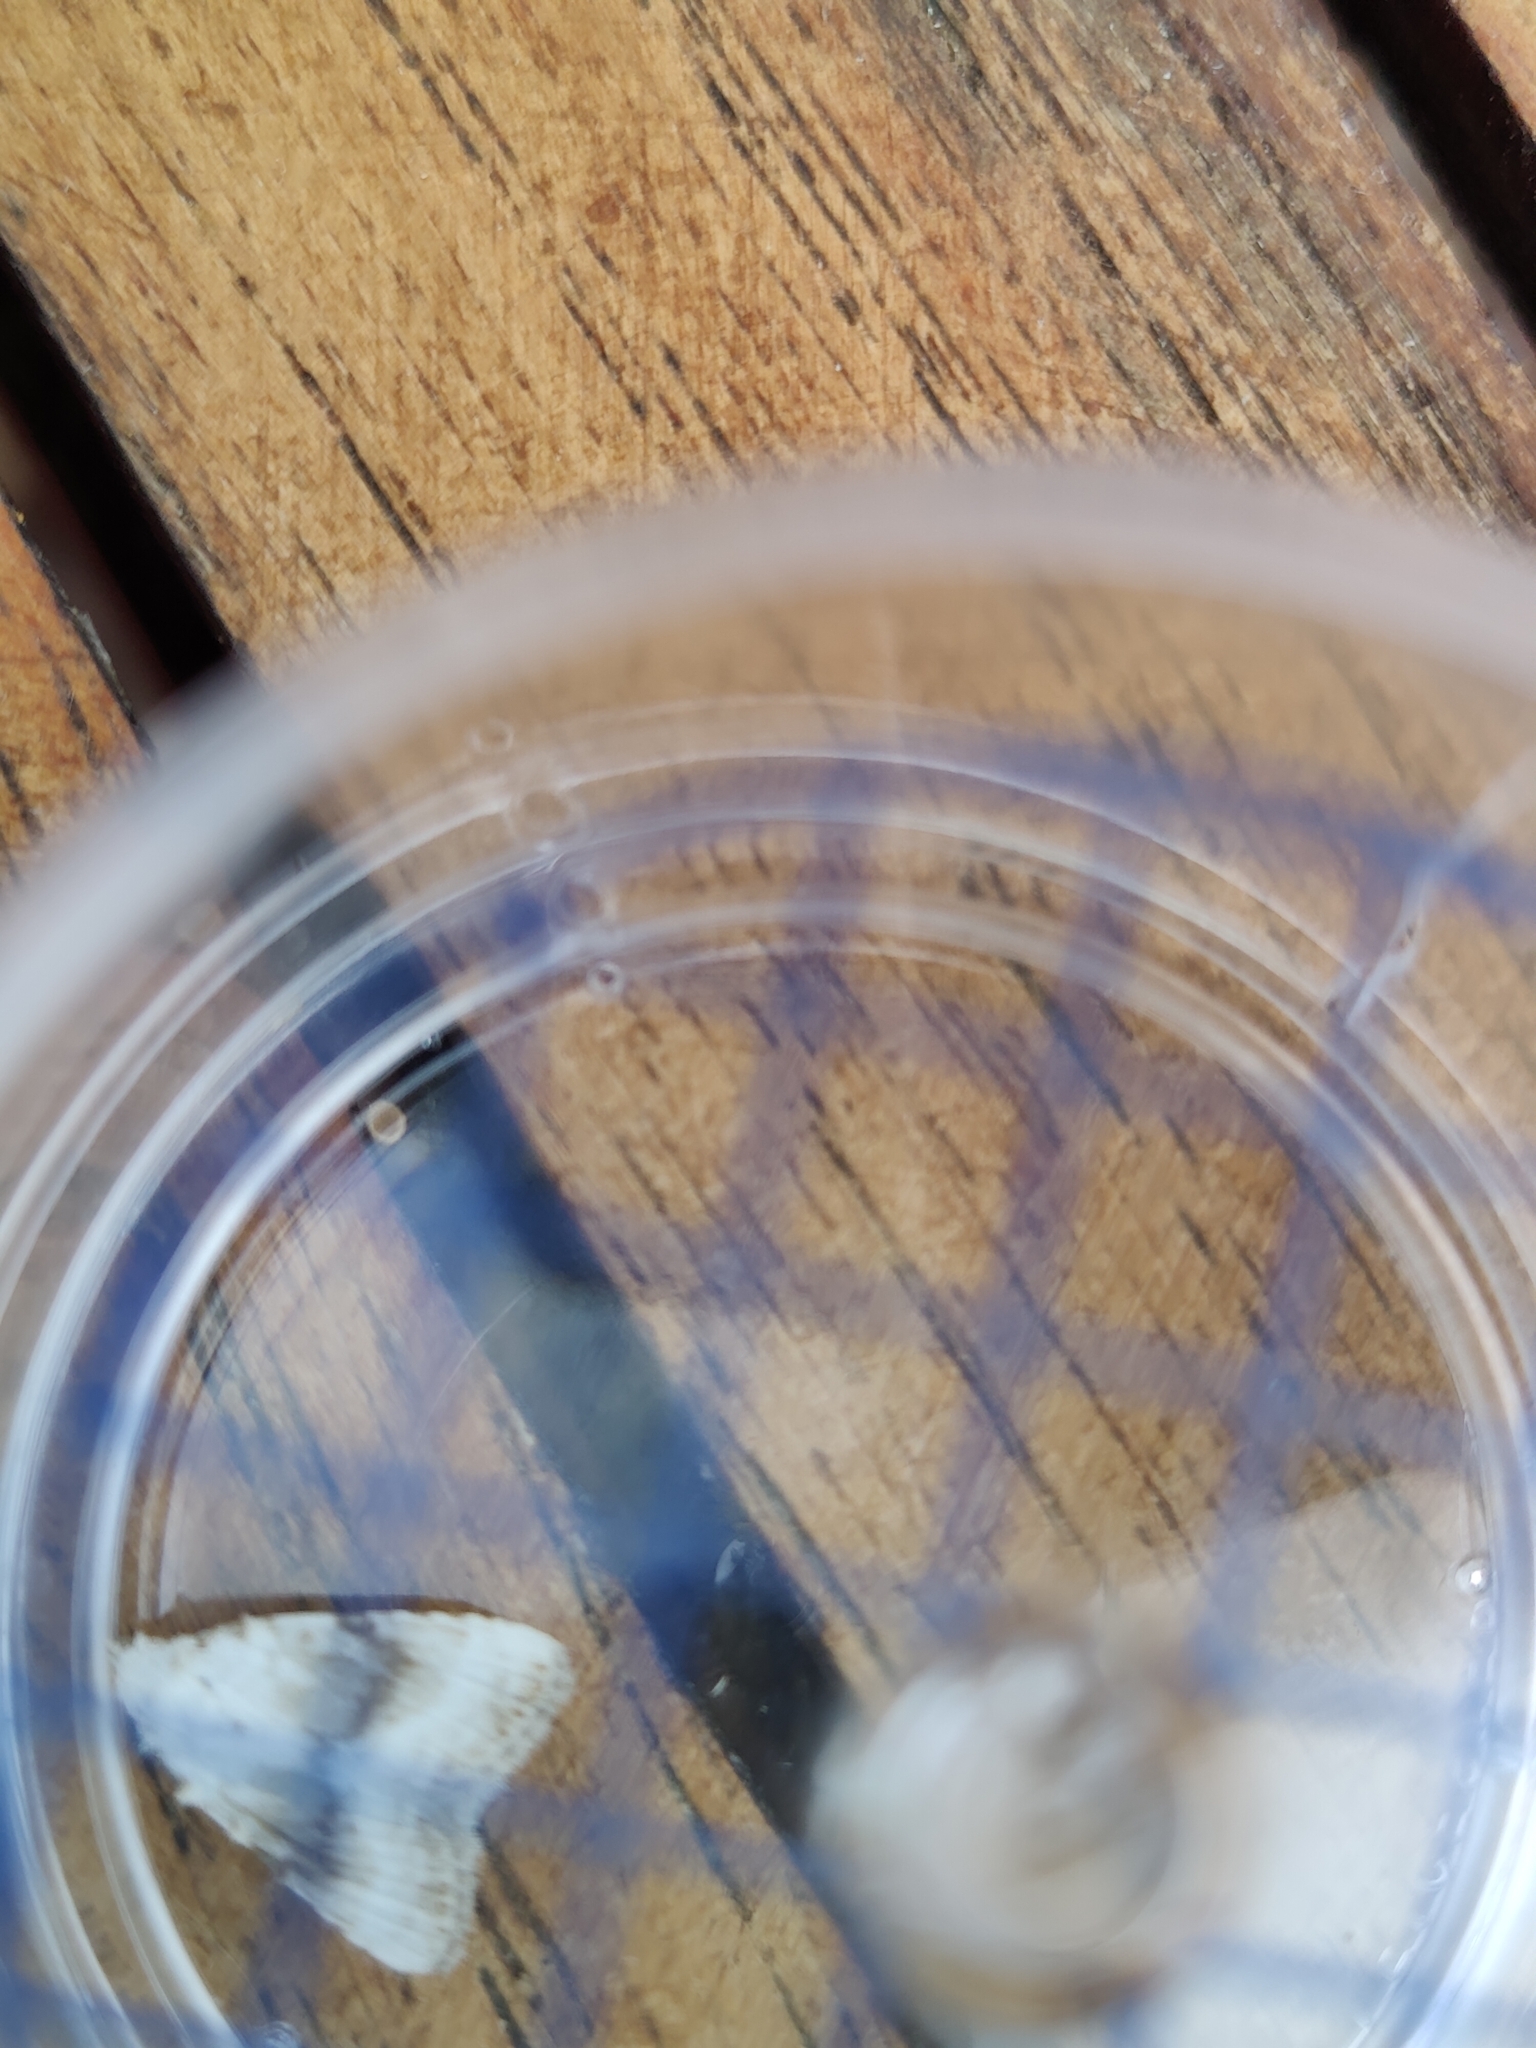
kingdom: Animalia
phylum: Arthropoda
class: Insecta
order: Lepidoptera
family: Nolidae
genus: Meganola
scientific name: Meganola albula
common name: Kent black arches
